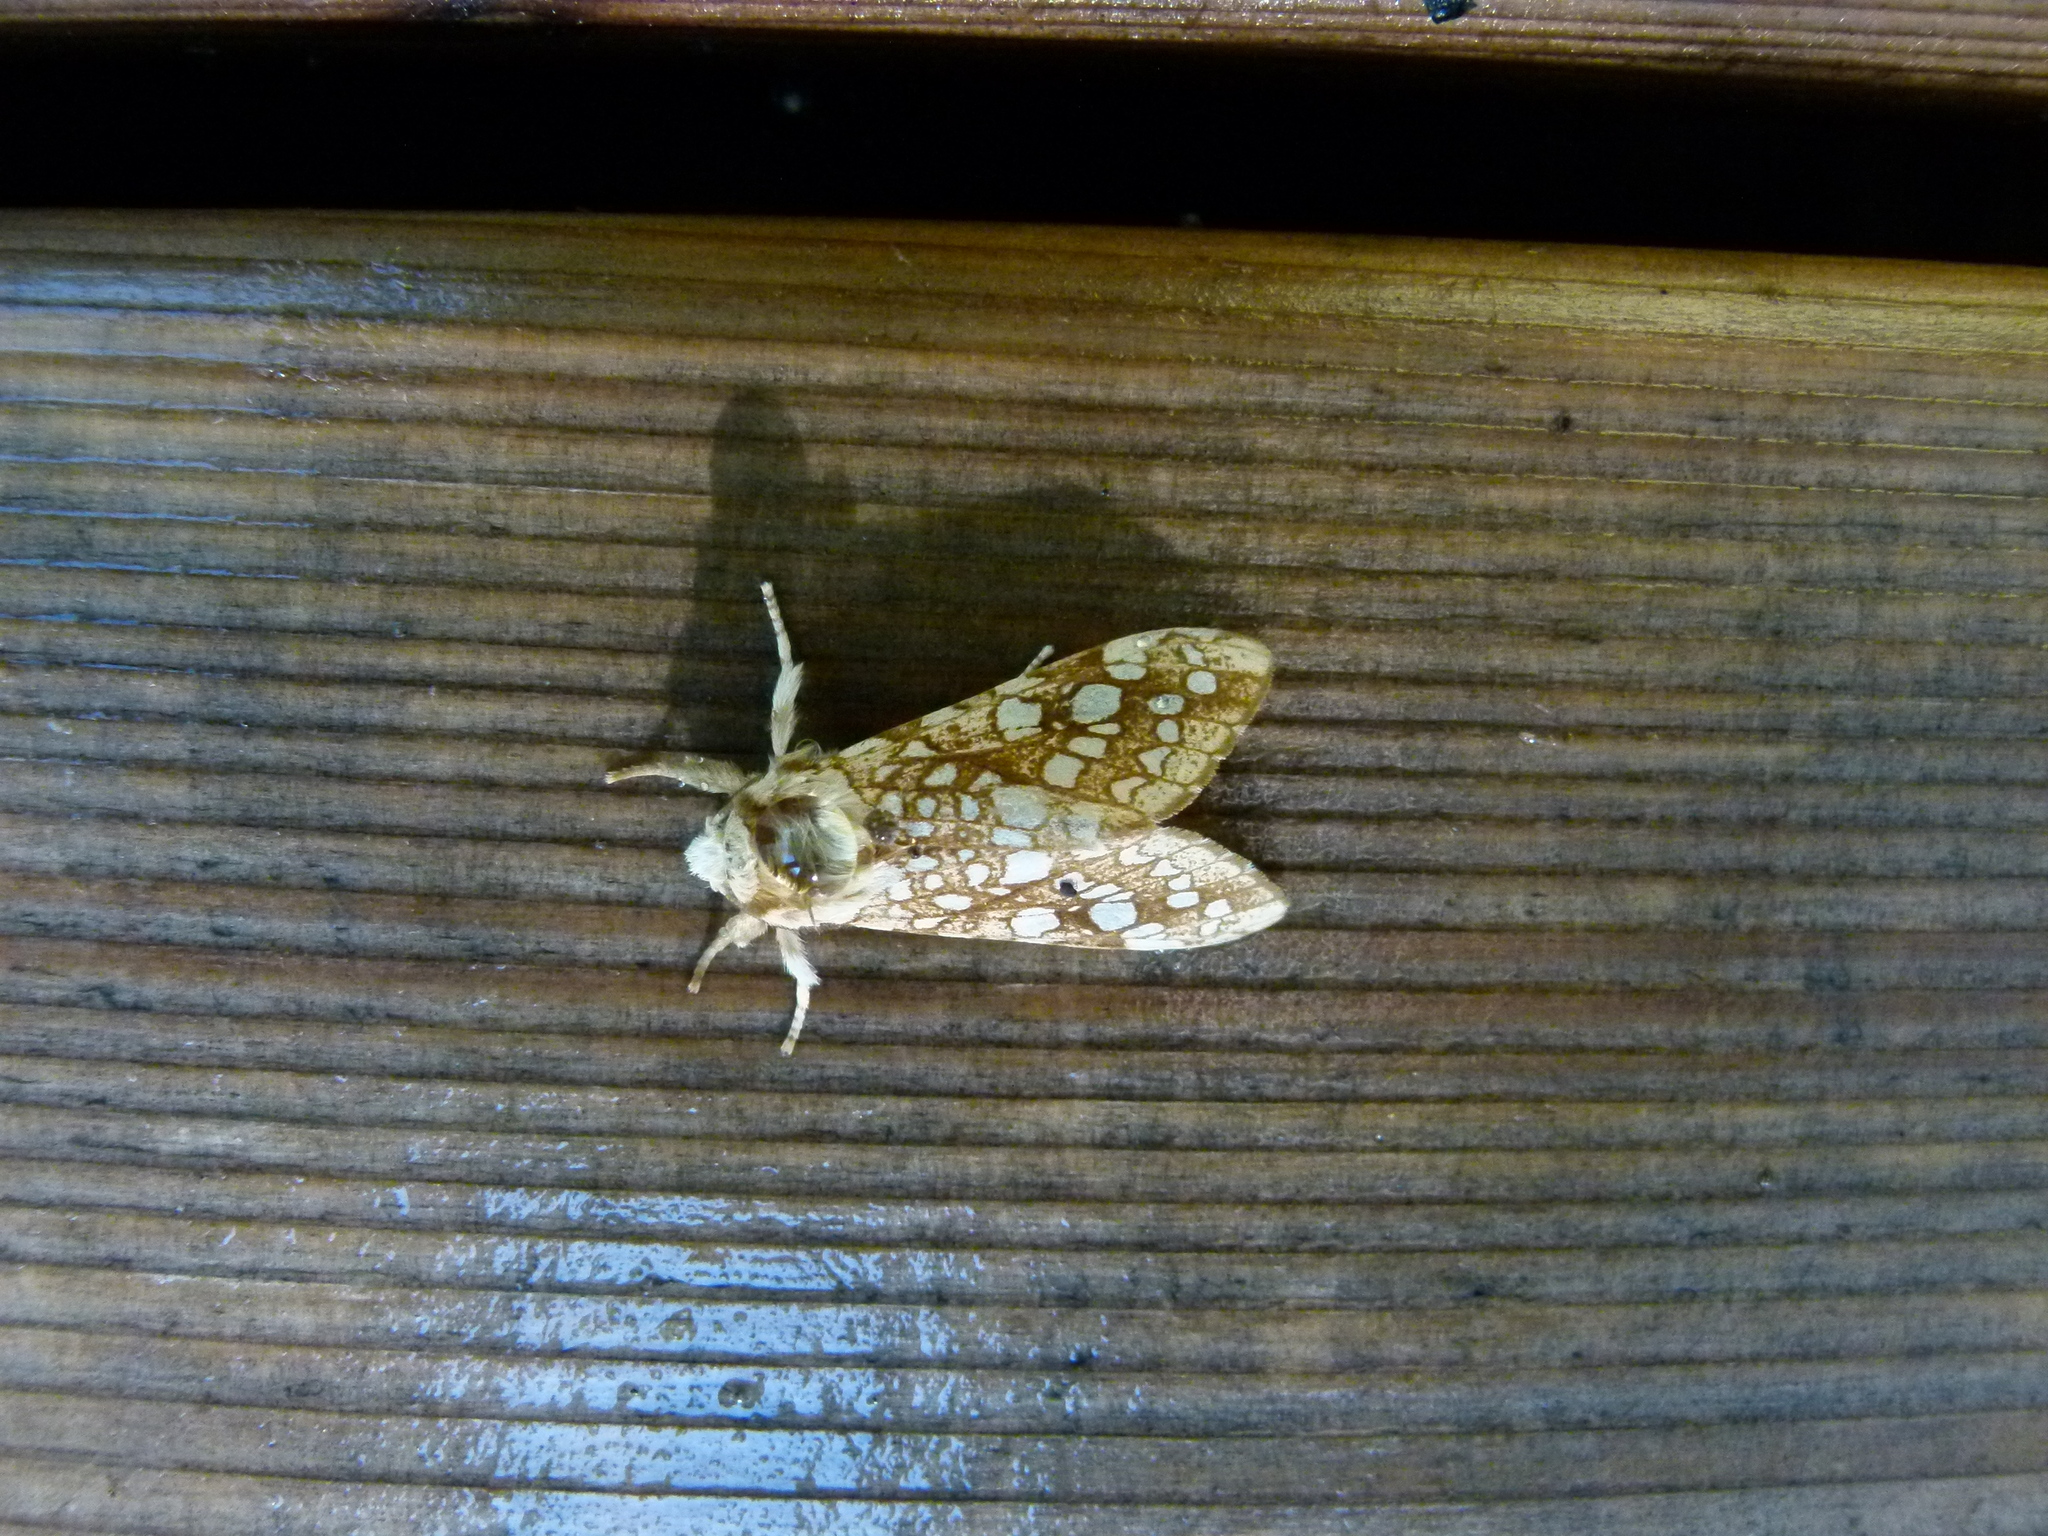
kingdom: Animalia
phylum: Arthropoda
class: Insecta
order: Lepidoptera
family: Erebidae
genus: Lophocampa
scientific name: Lophocampa caryae
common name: Hickory tussock moth
